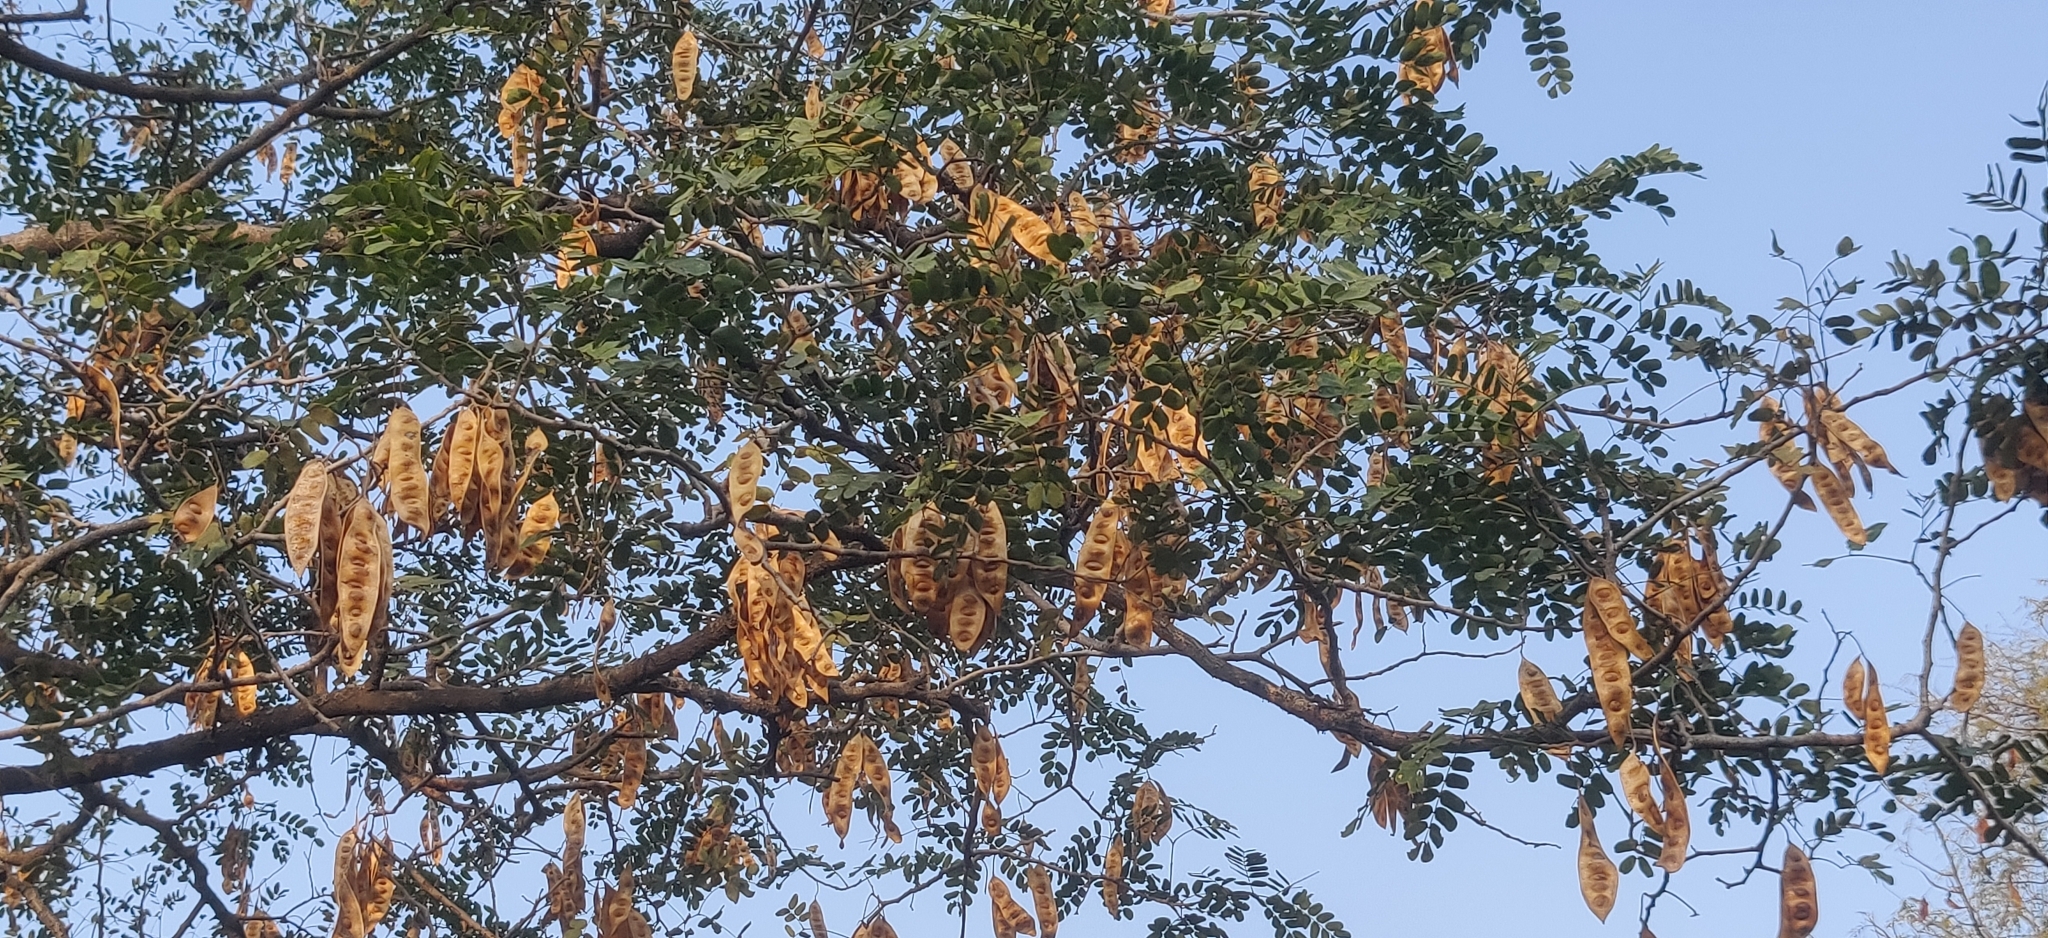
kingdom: Plantae
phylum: Tracheophyta
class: Magnoliopsida
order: Fabales
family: Fabaceae
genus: Albizia
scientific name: Albizia lebbeck
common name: Woman's tongue
